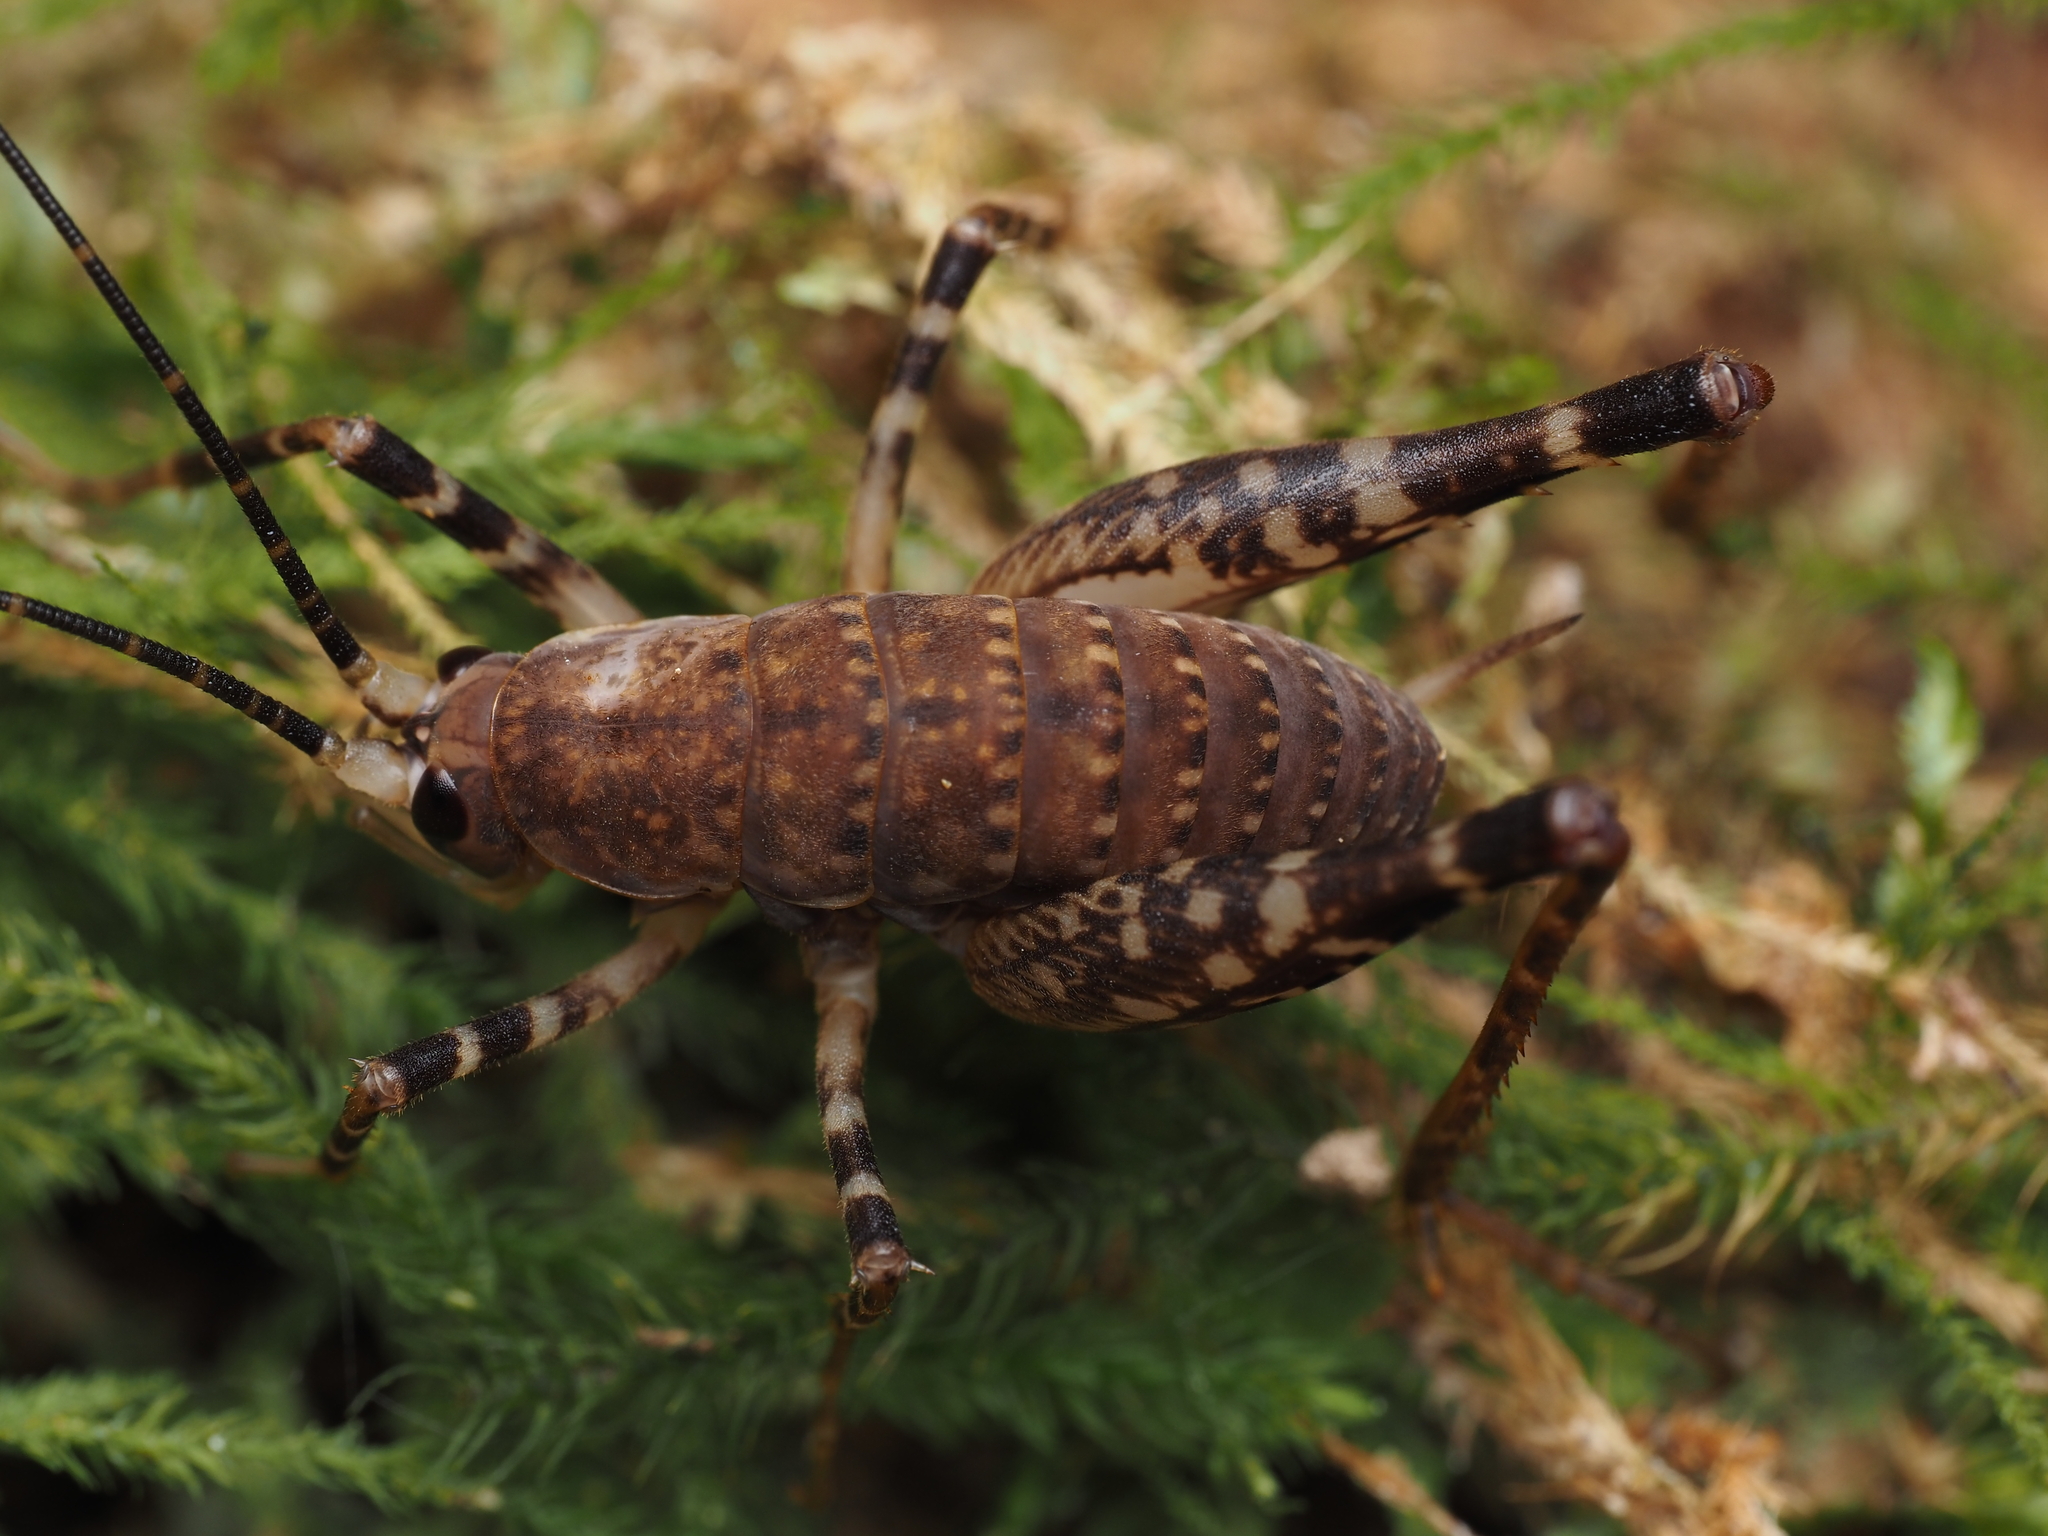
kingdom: Animalia
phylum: Arthropoda
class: Insecta
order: Orthoptera
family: Rhaphidophoridae
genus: Pachyrhamma
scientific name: Pachyrhamma longicauda
